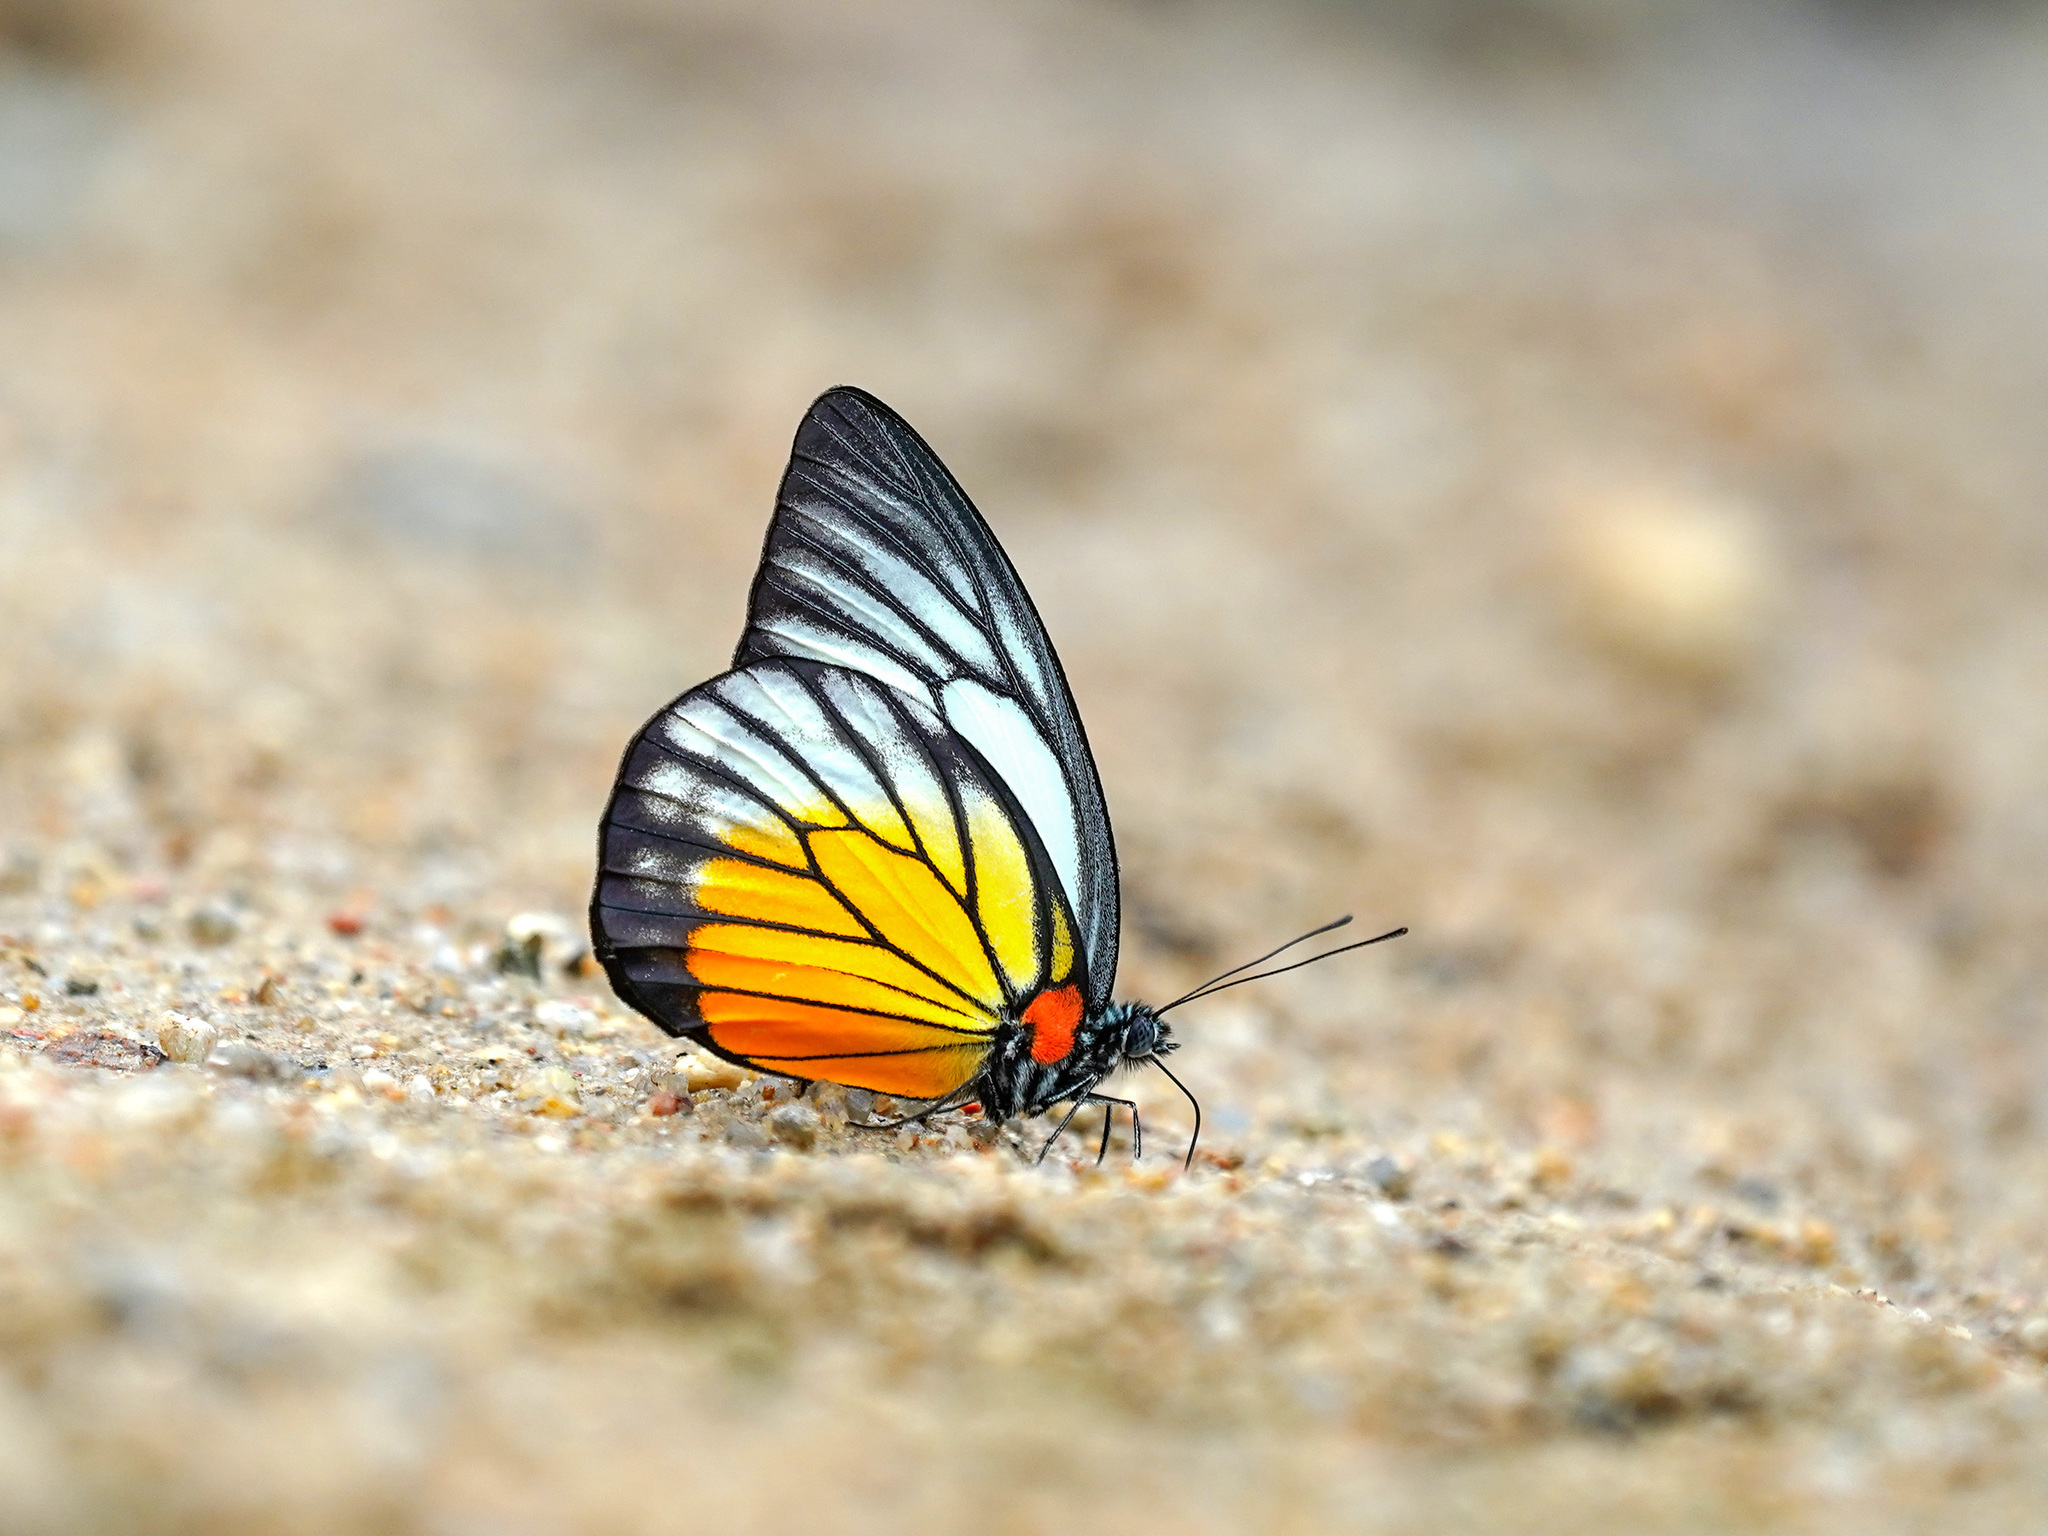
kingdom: Animalia
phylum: Arthropoda
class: Insecta
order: Lepidoptera
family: Pieridae
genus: Prioneris
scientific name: Prioneris philonome
